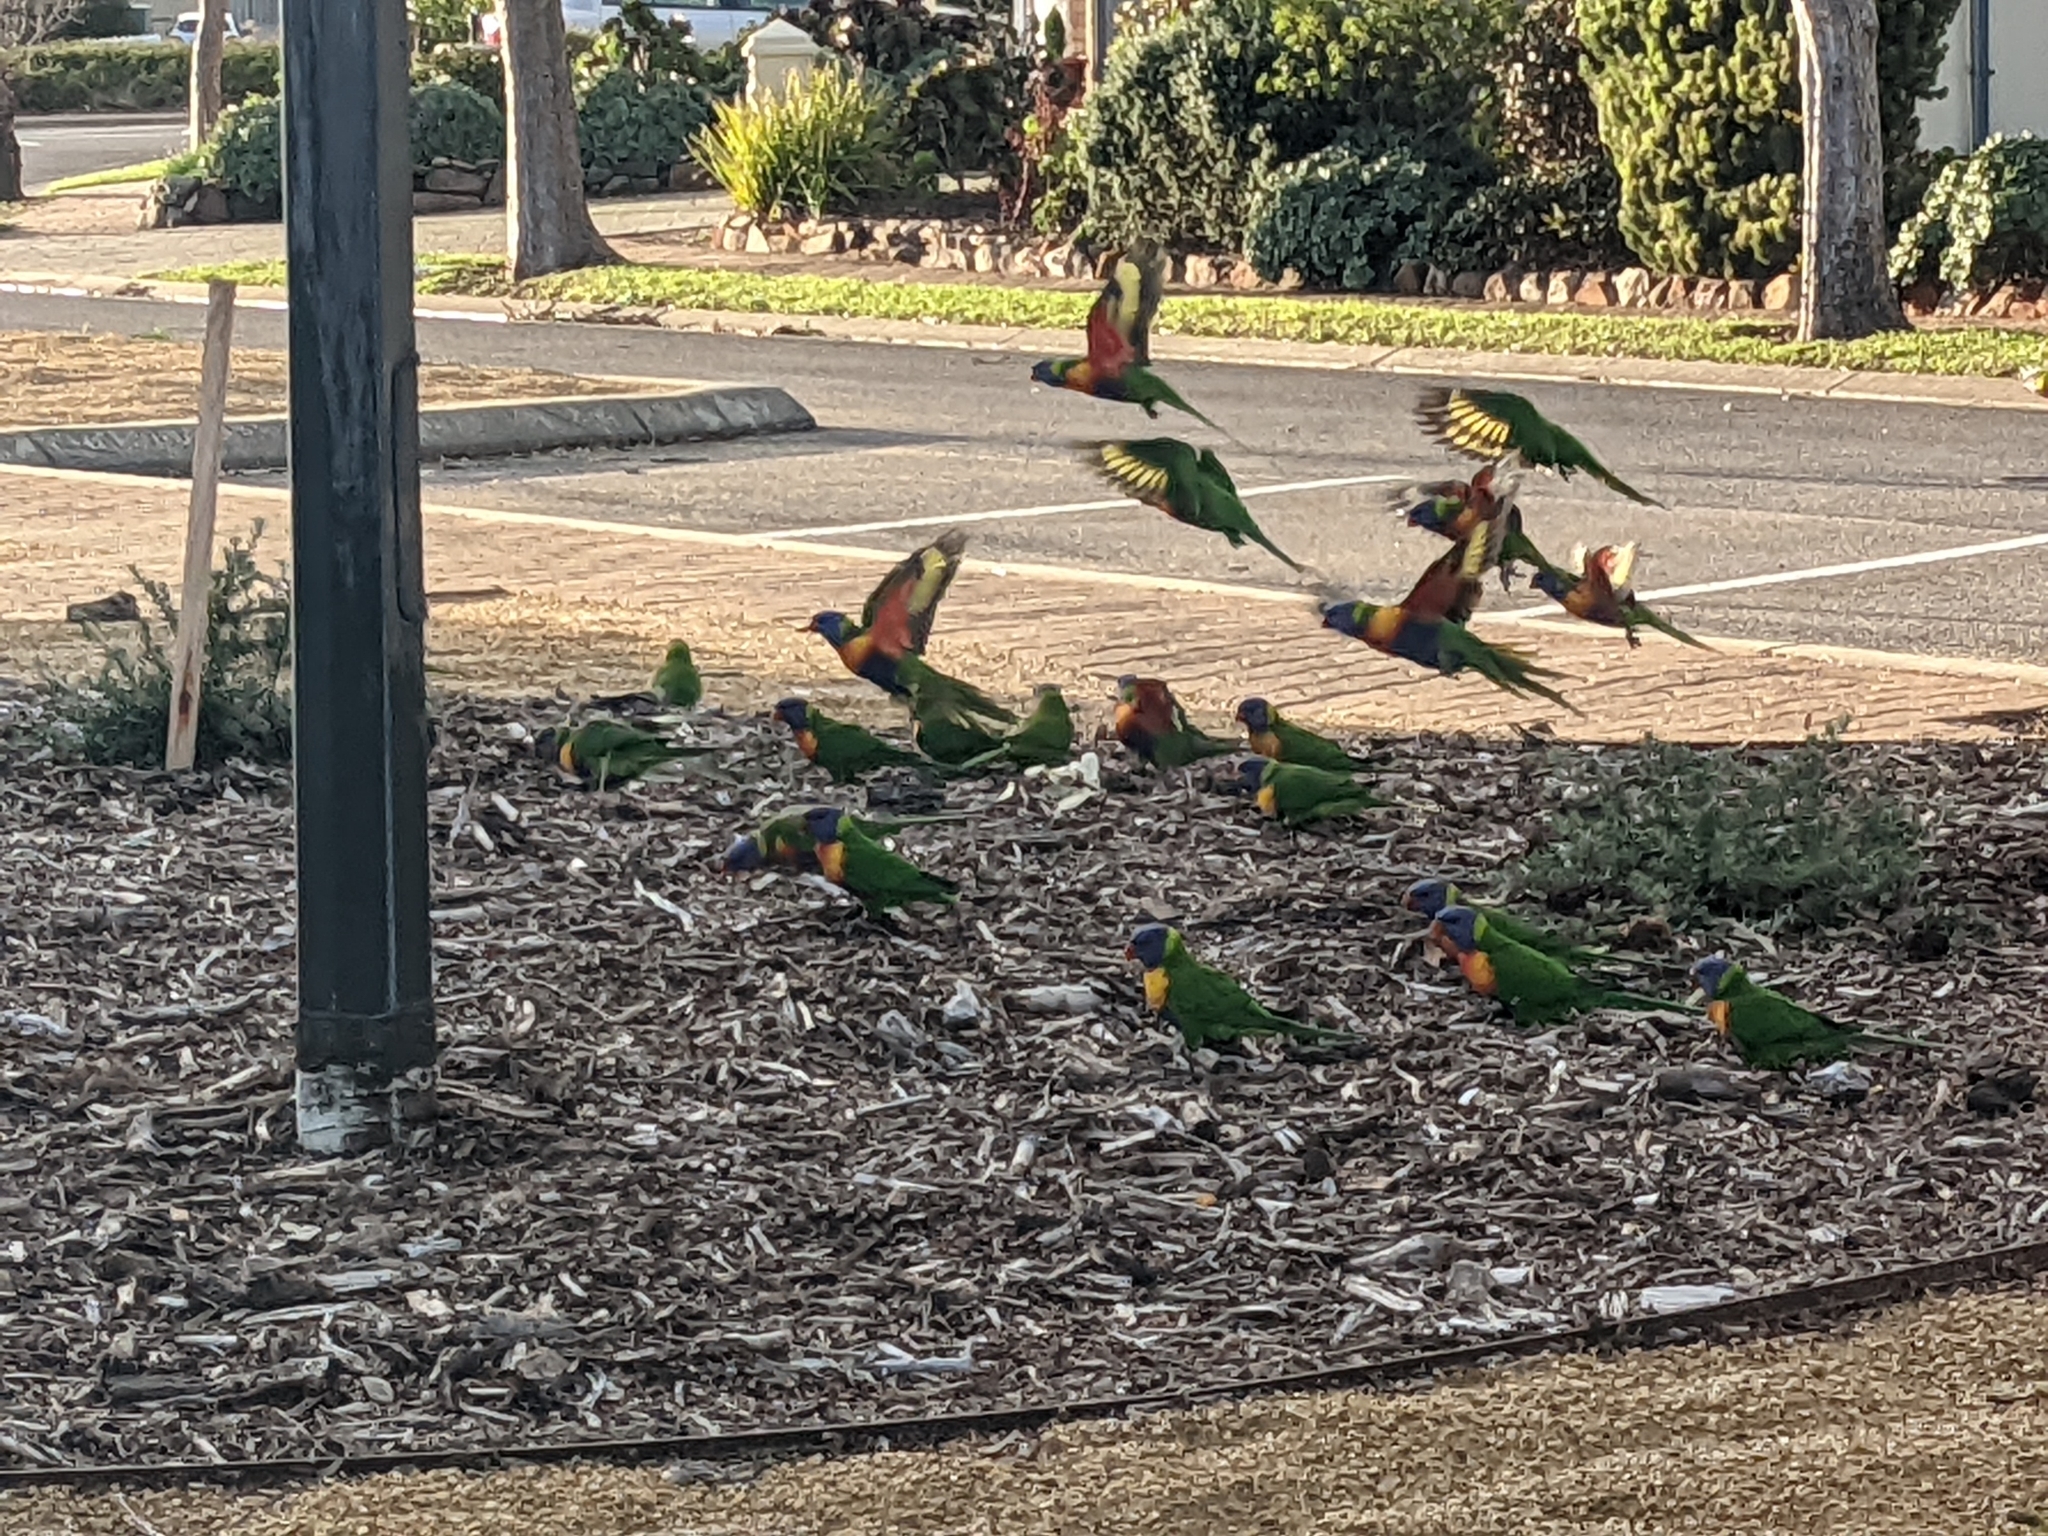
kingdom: Animalia
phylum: Chordata
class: Aves
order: Psittaciformes
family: Psittacidae
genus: Trichoglossus
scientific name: Trichoglossus haematodus
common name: Coconut lorikeet
